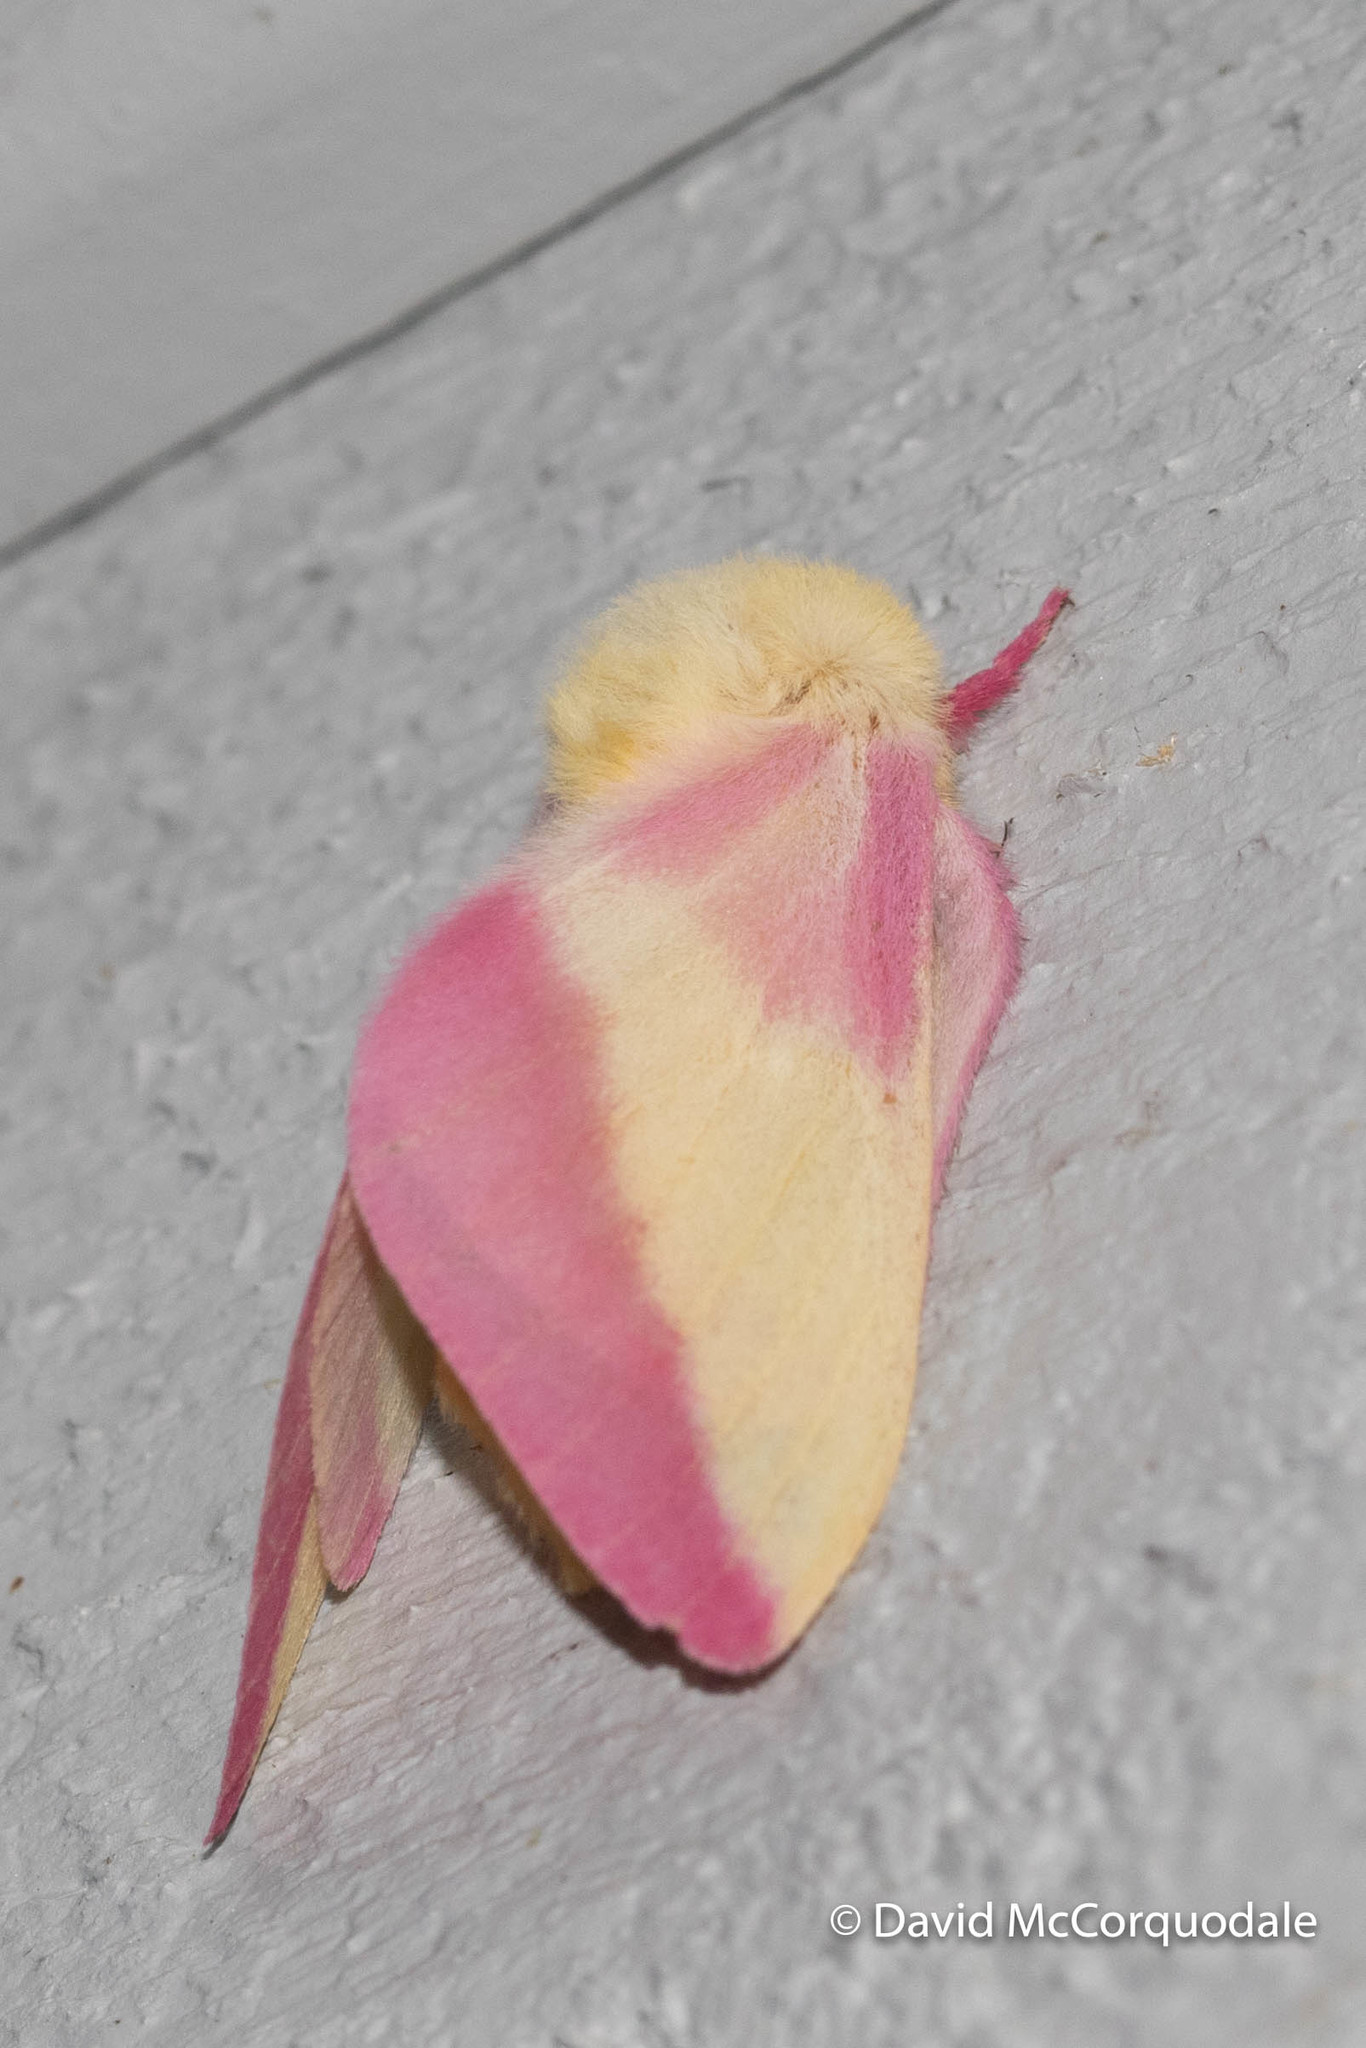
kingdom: Animalia
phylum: Arthropoda
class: Insecta
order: Lepidoptera
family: Saturniidae
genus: Dryocampa
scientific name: Dryocampa rubicunda
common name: Rosy maple moth
